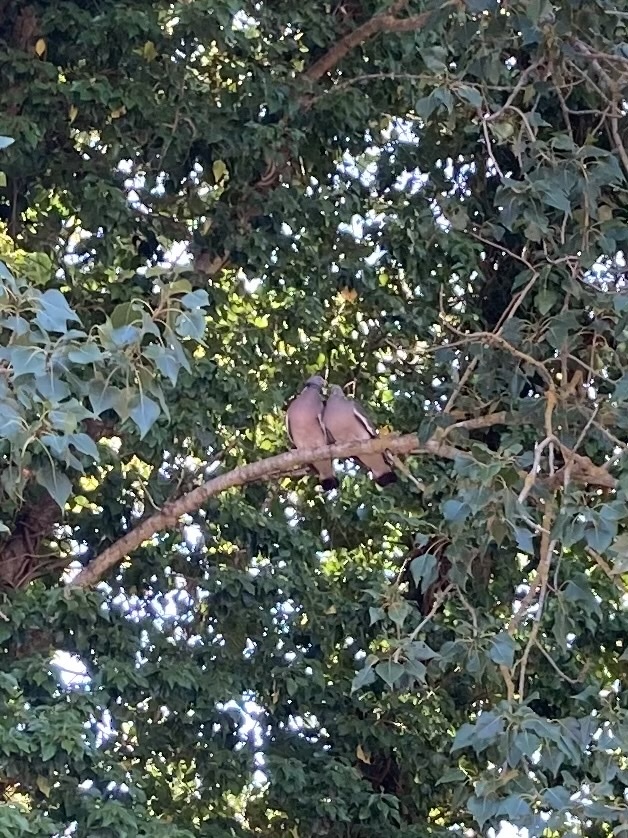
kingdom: Animalia
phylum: Chordata
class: Aves
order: Columbiformes
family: Columbidae
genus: Columba
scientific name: Columba palumbus
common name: Common wood pigeon
